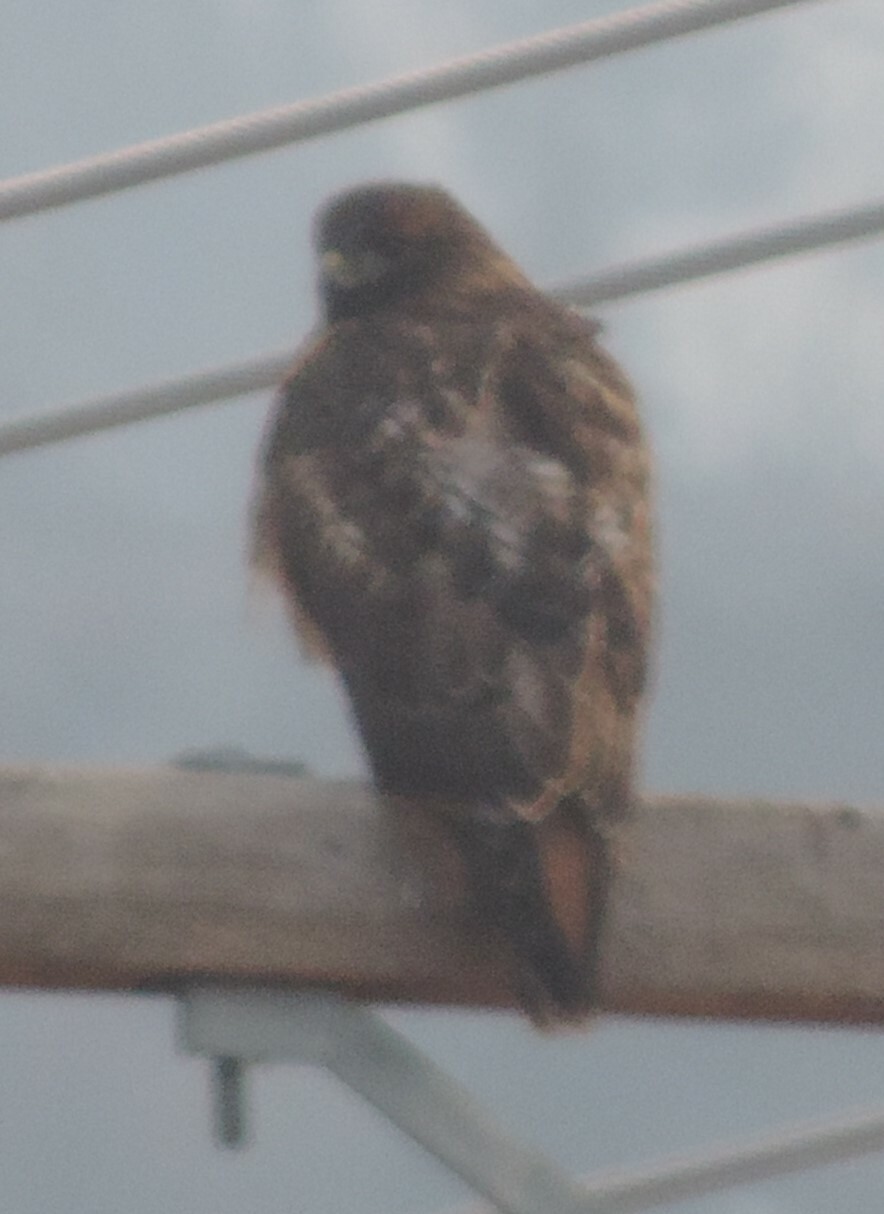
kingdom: Animalia
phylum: Chordata
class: Aves
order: Accipitriformes
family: Accipitridae
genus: Buteo
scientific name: Buteo jamaicensis
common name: Red-tailed hawk
